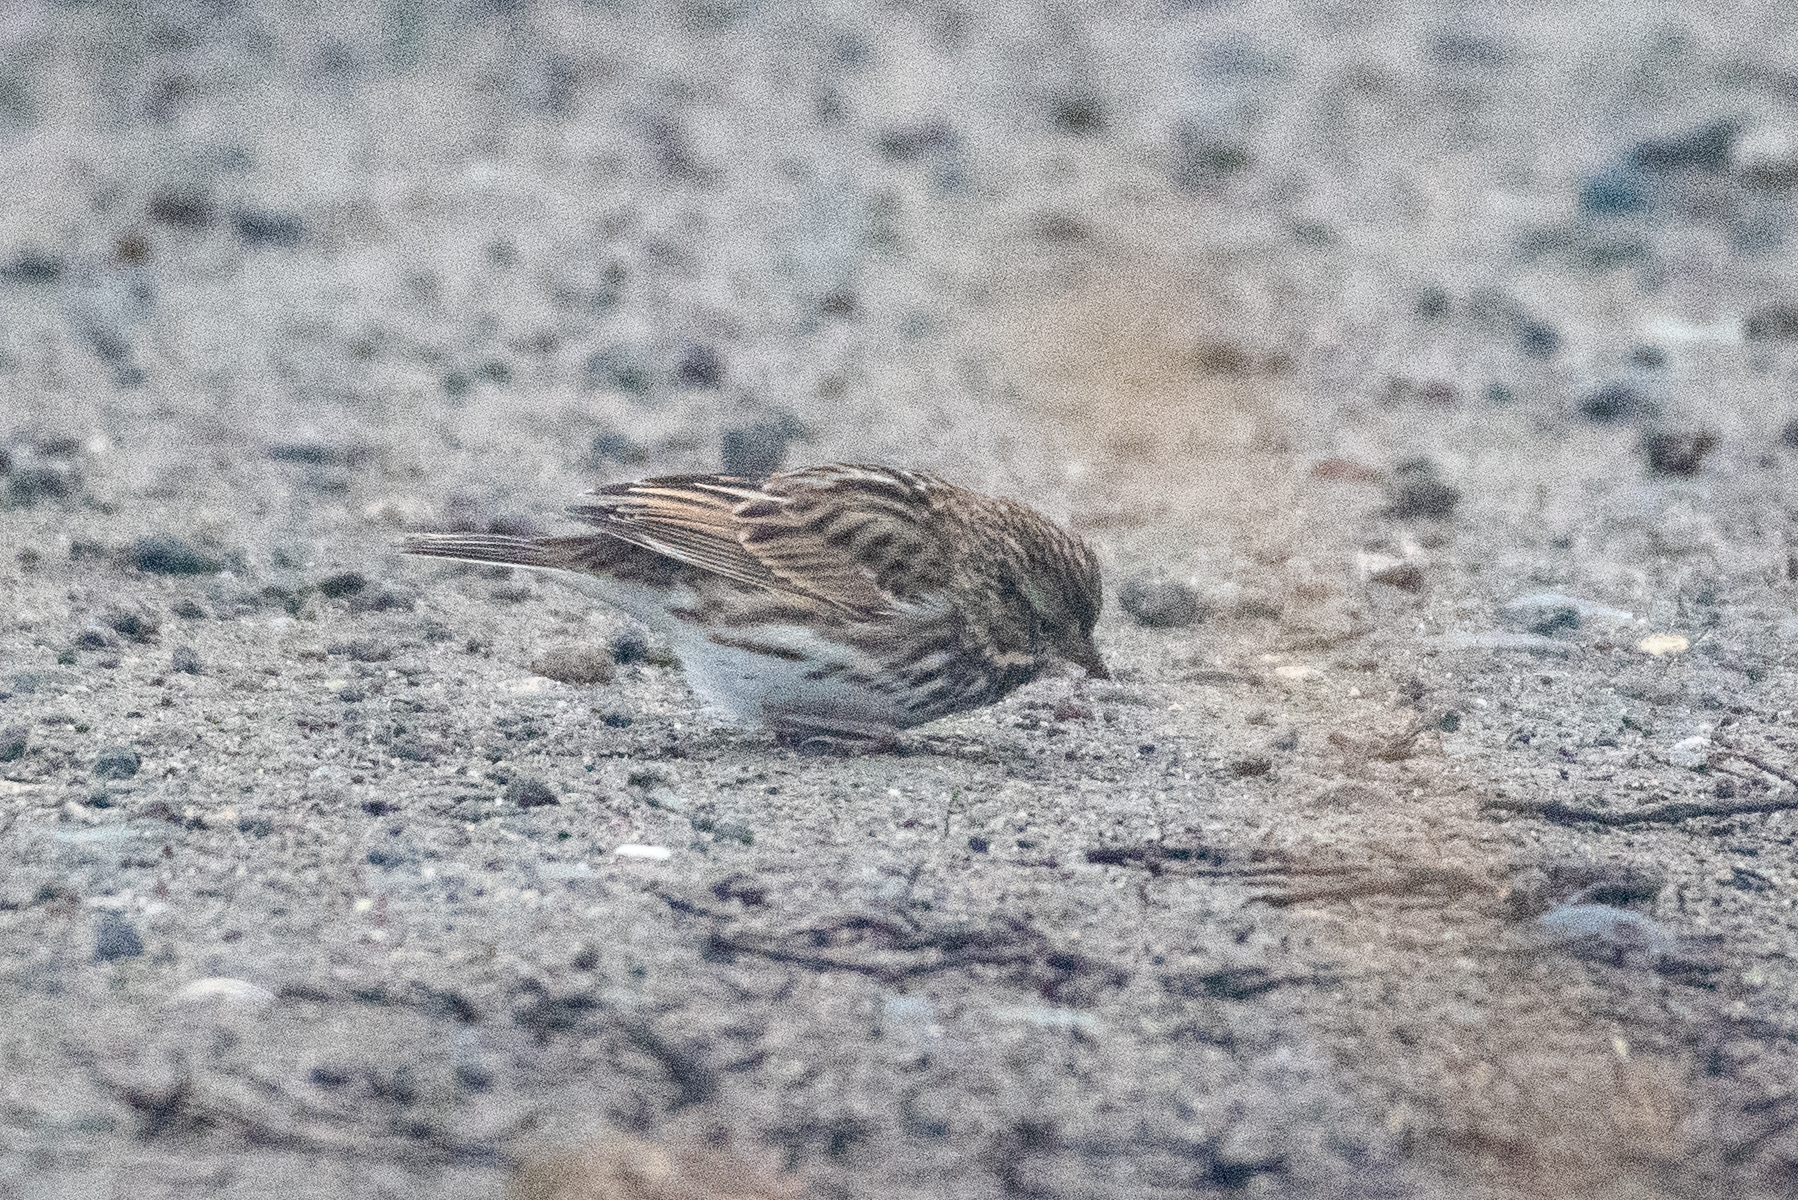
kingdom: Animalia
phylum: Chordata
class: Aves
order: Passeriformes
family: Passerellidae
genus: Passerculus
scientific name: Passerculus sandwichensis
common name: Savannah sparrow
